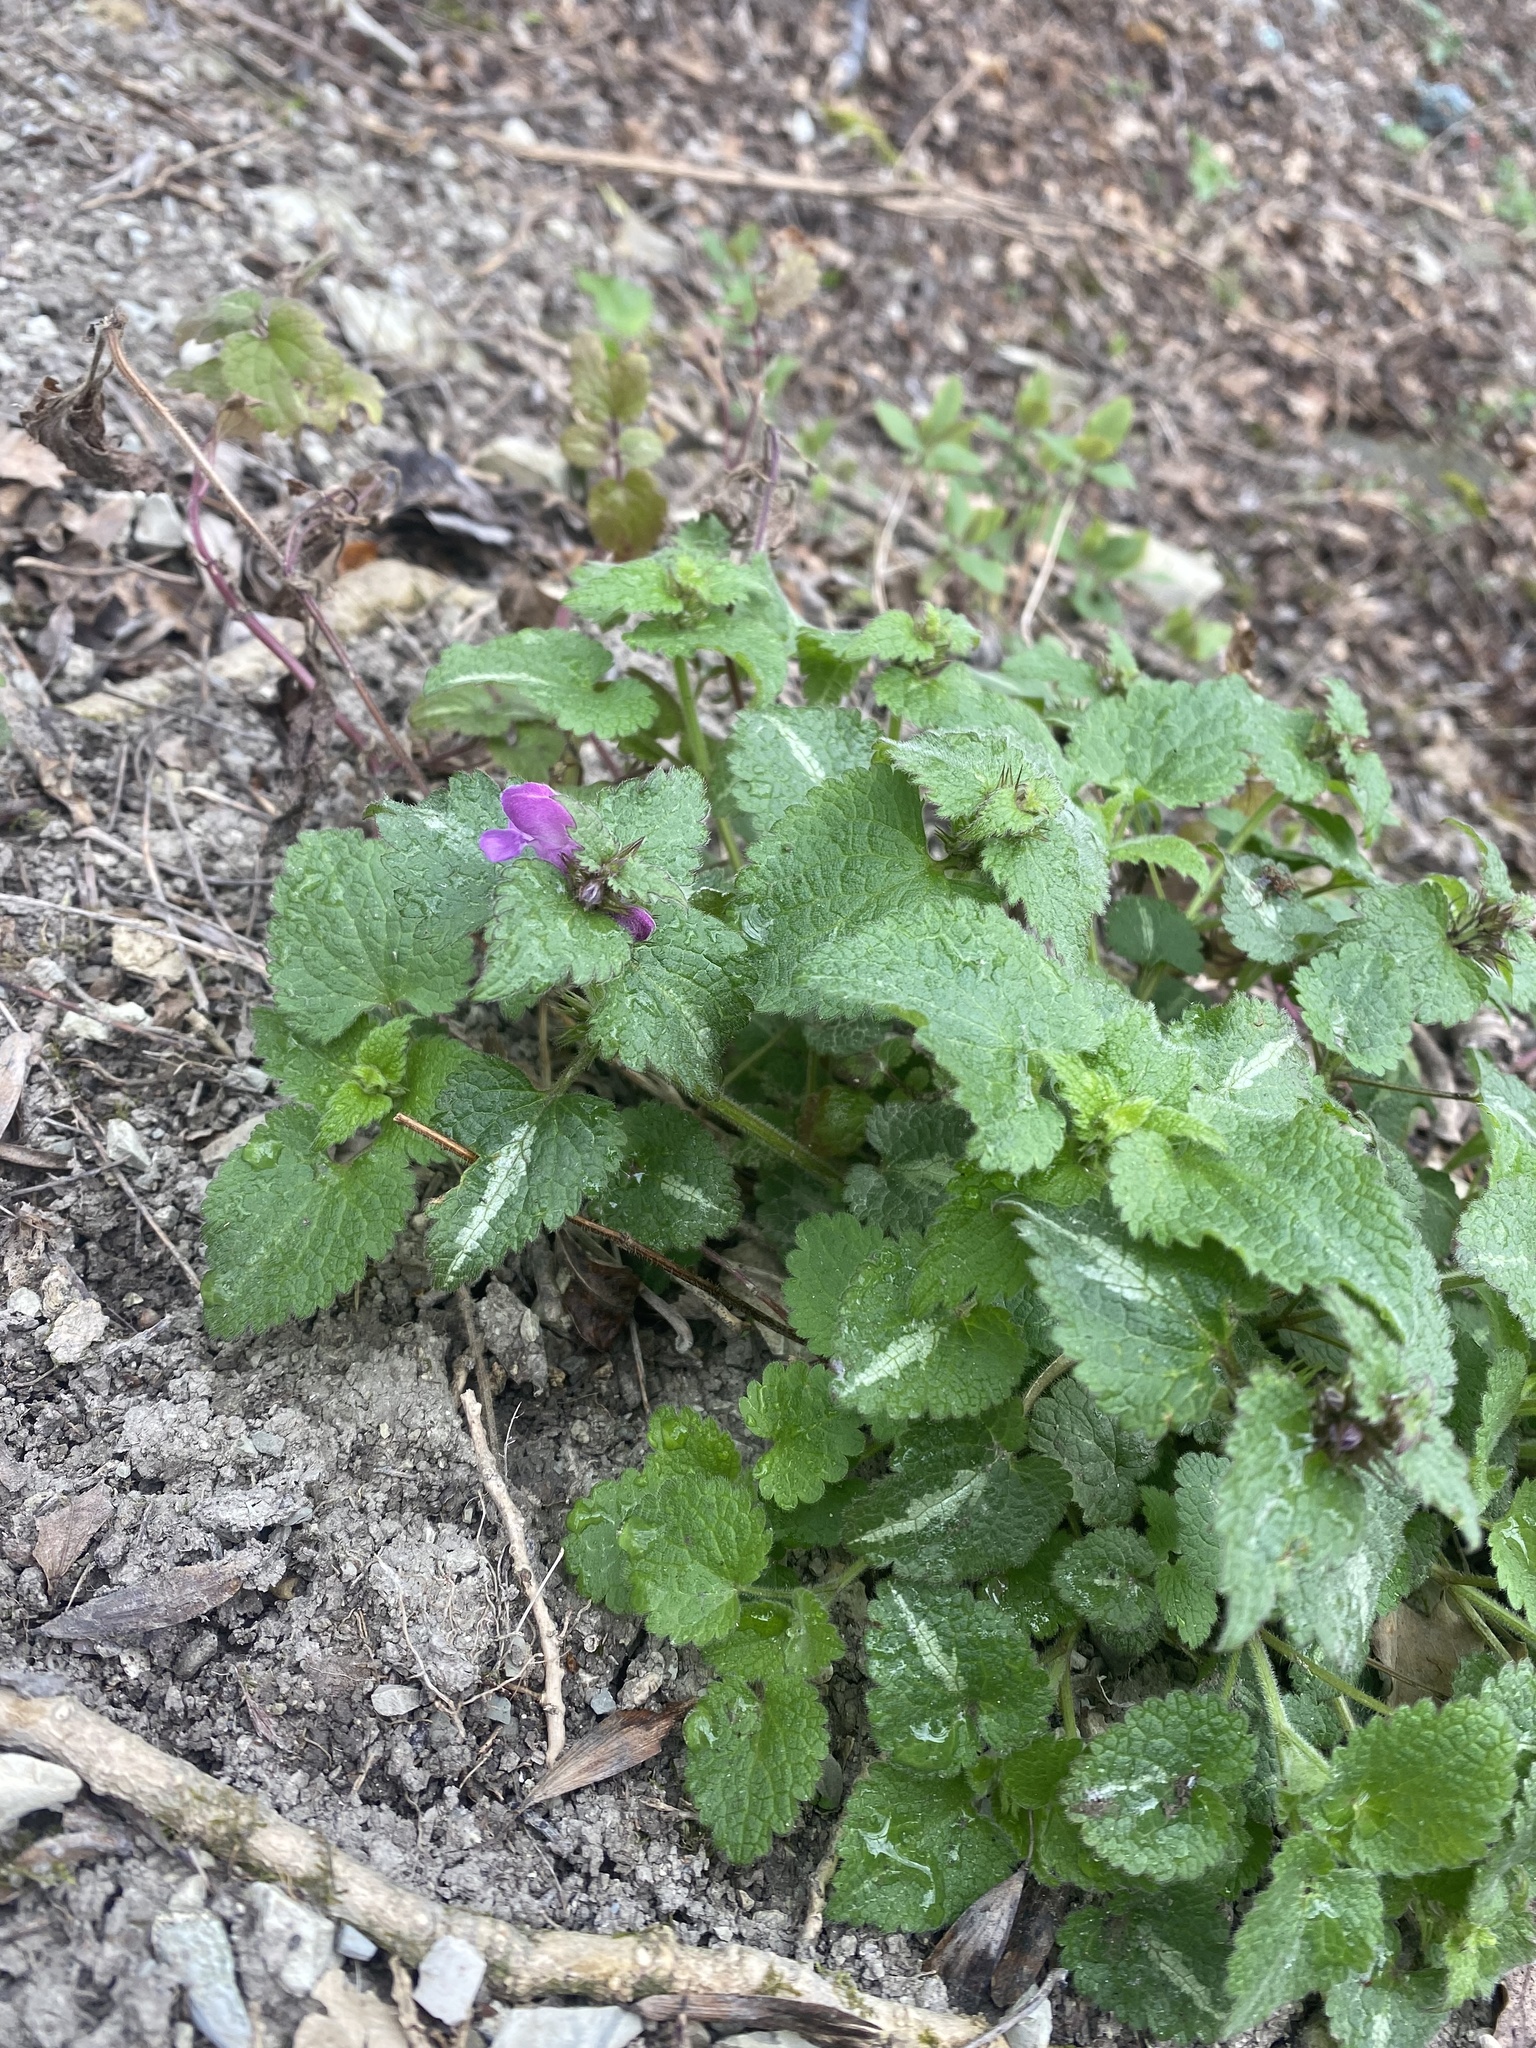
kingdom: Plantae
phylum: Tracheophyta
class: Magnoliopsida
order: Lamiales
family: Lamiaceae
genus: Lamium
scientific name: Lamium maculatum
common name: Spotted dead-nettle
